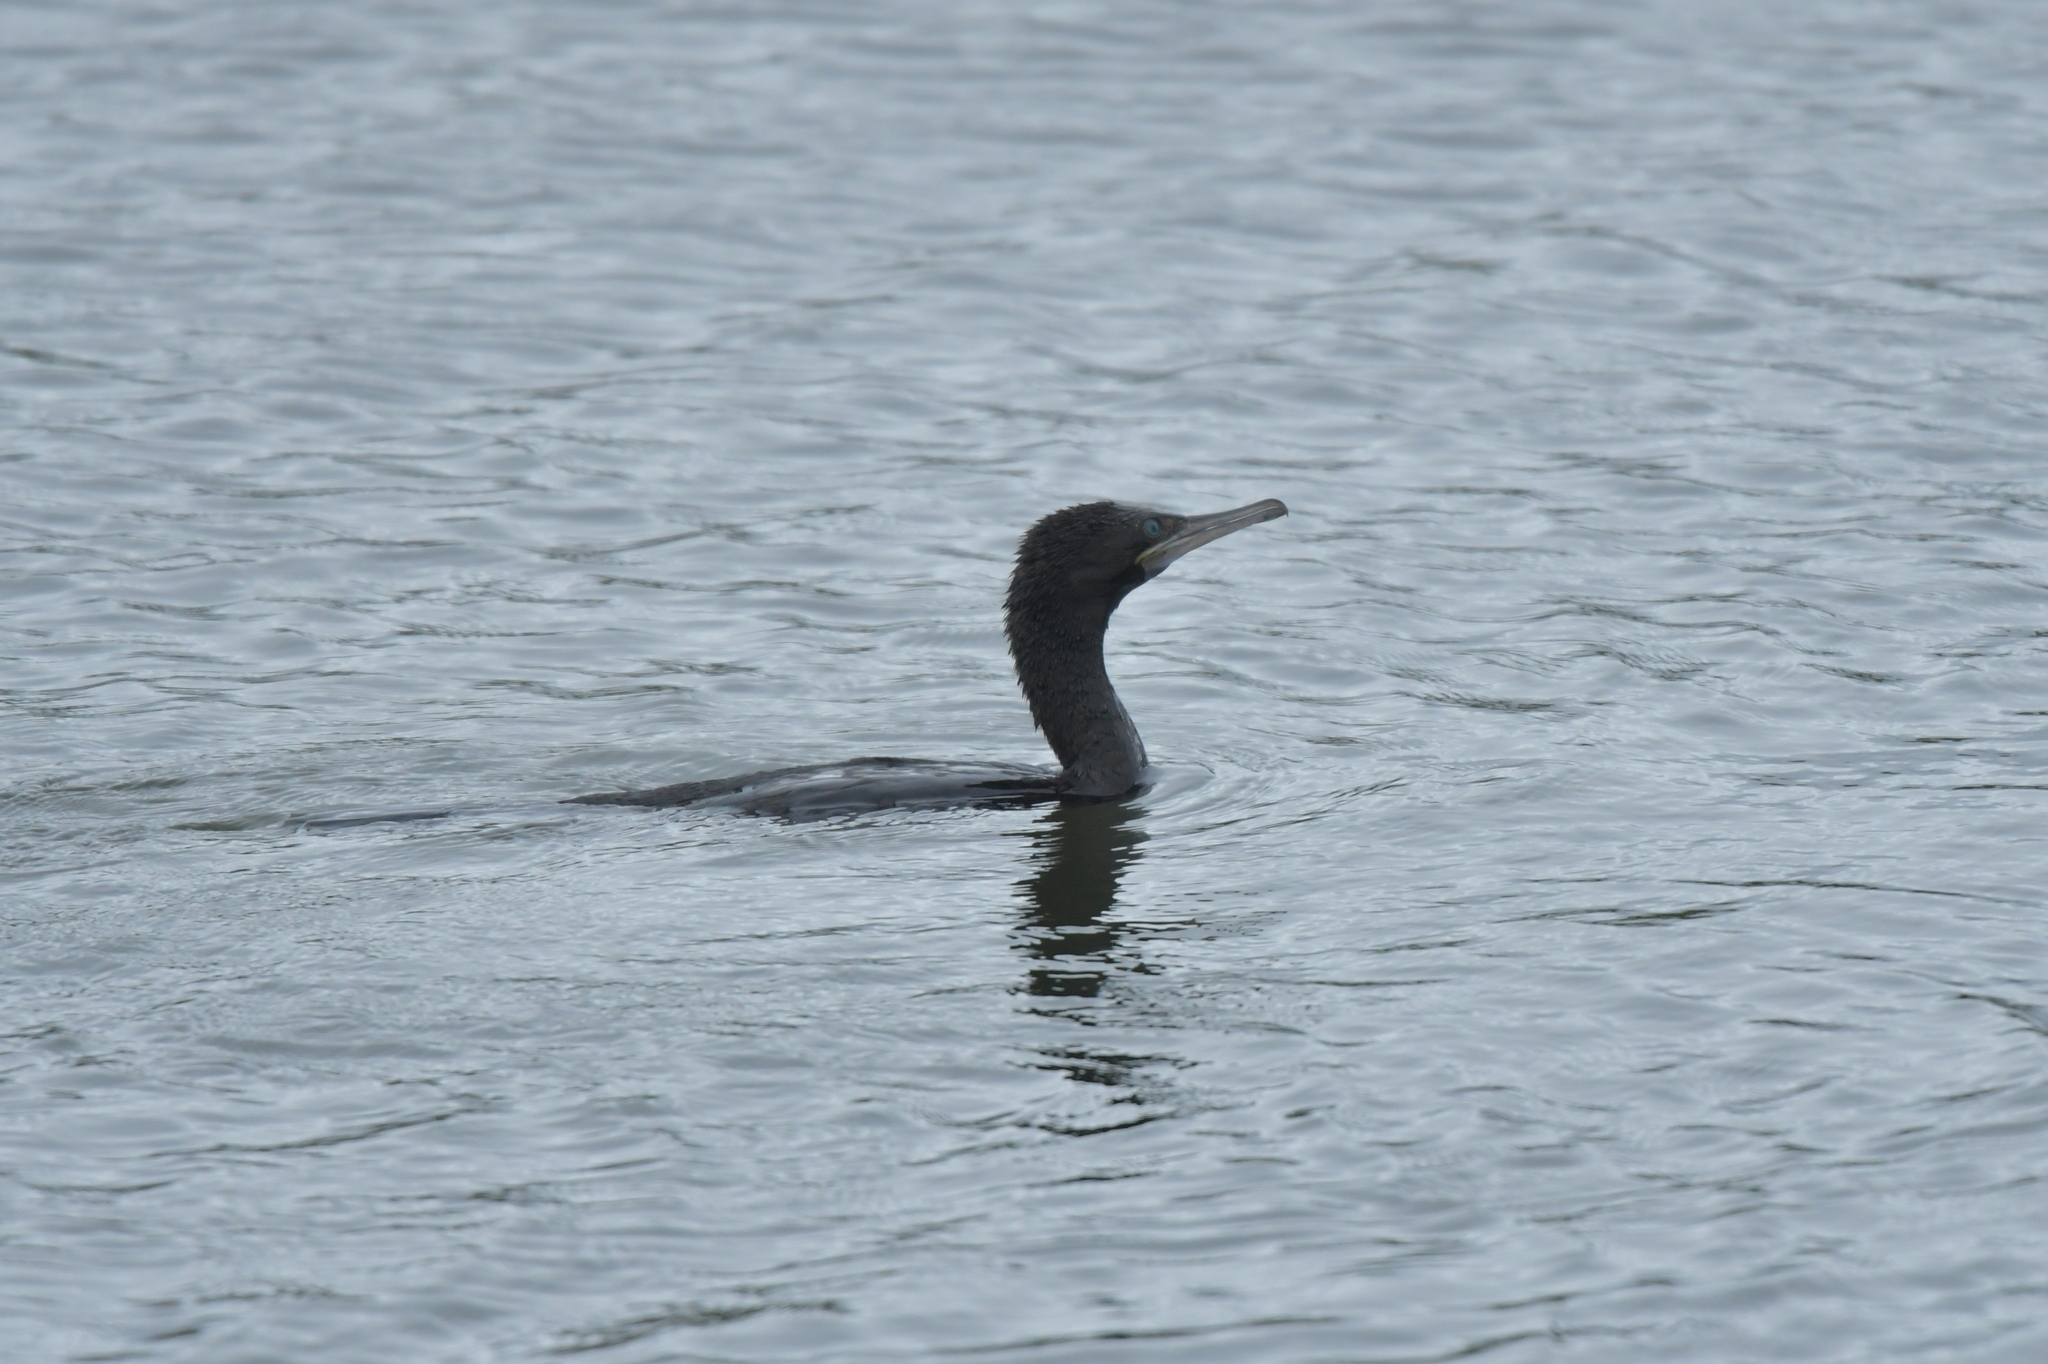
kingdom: Animalia
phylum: Chordata
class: Aves
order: Suliformes
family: Phalacrocoracidae
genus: Phalacrocorax
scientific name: Phalacrocorax sulcirostris
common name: Little black cormorant
